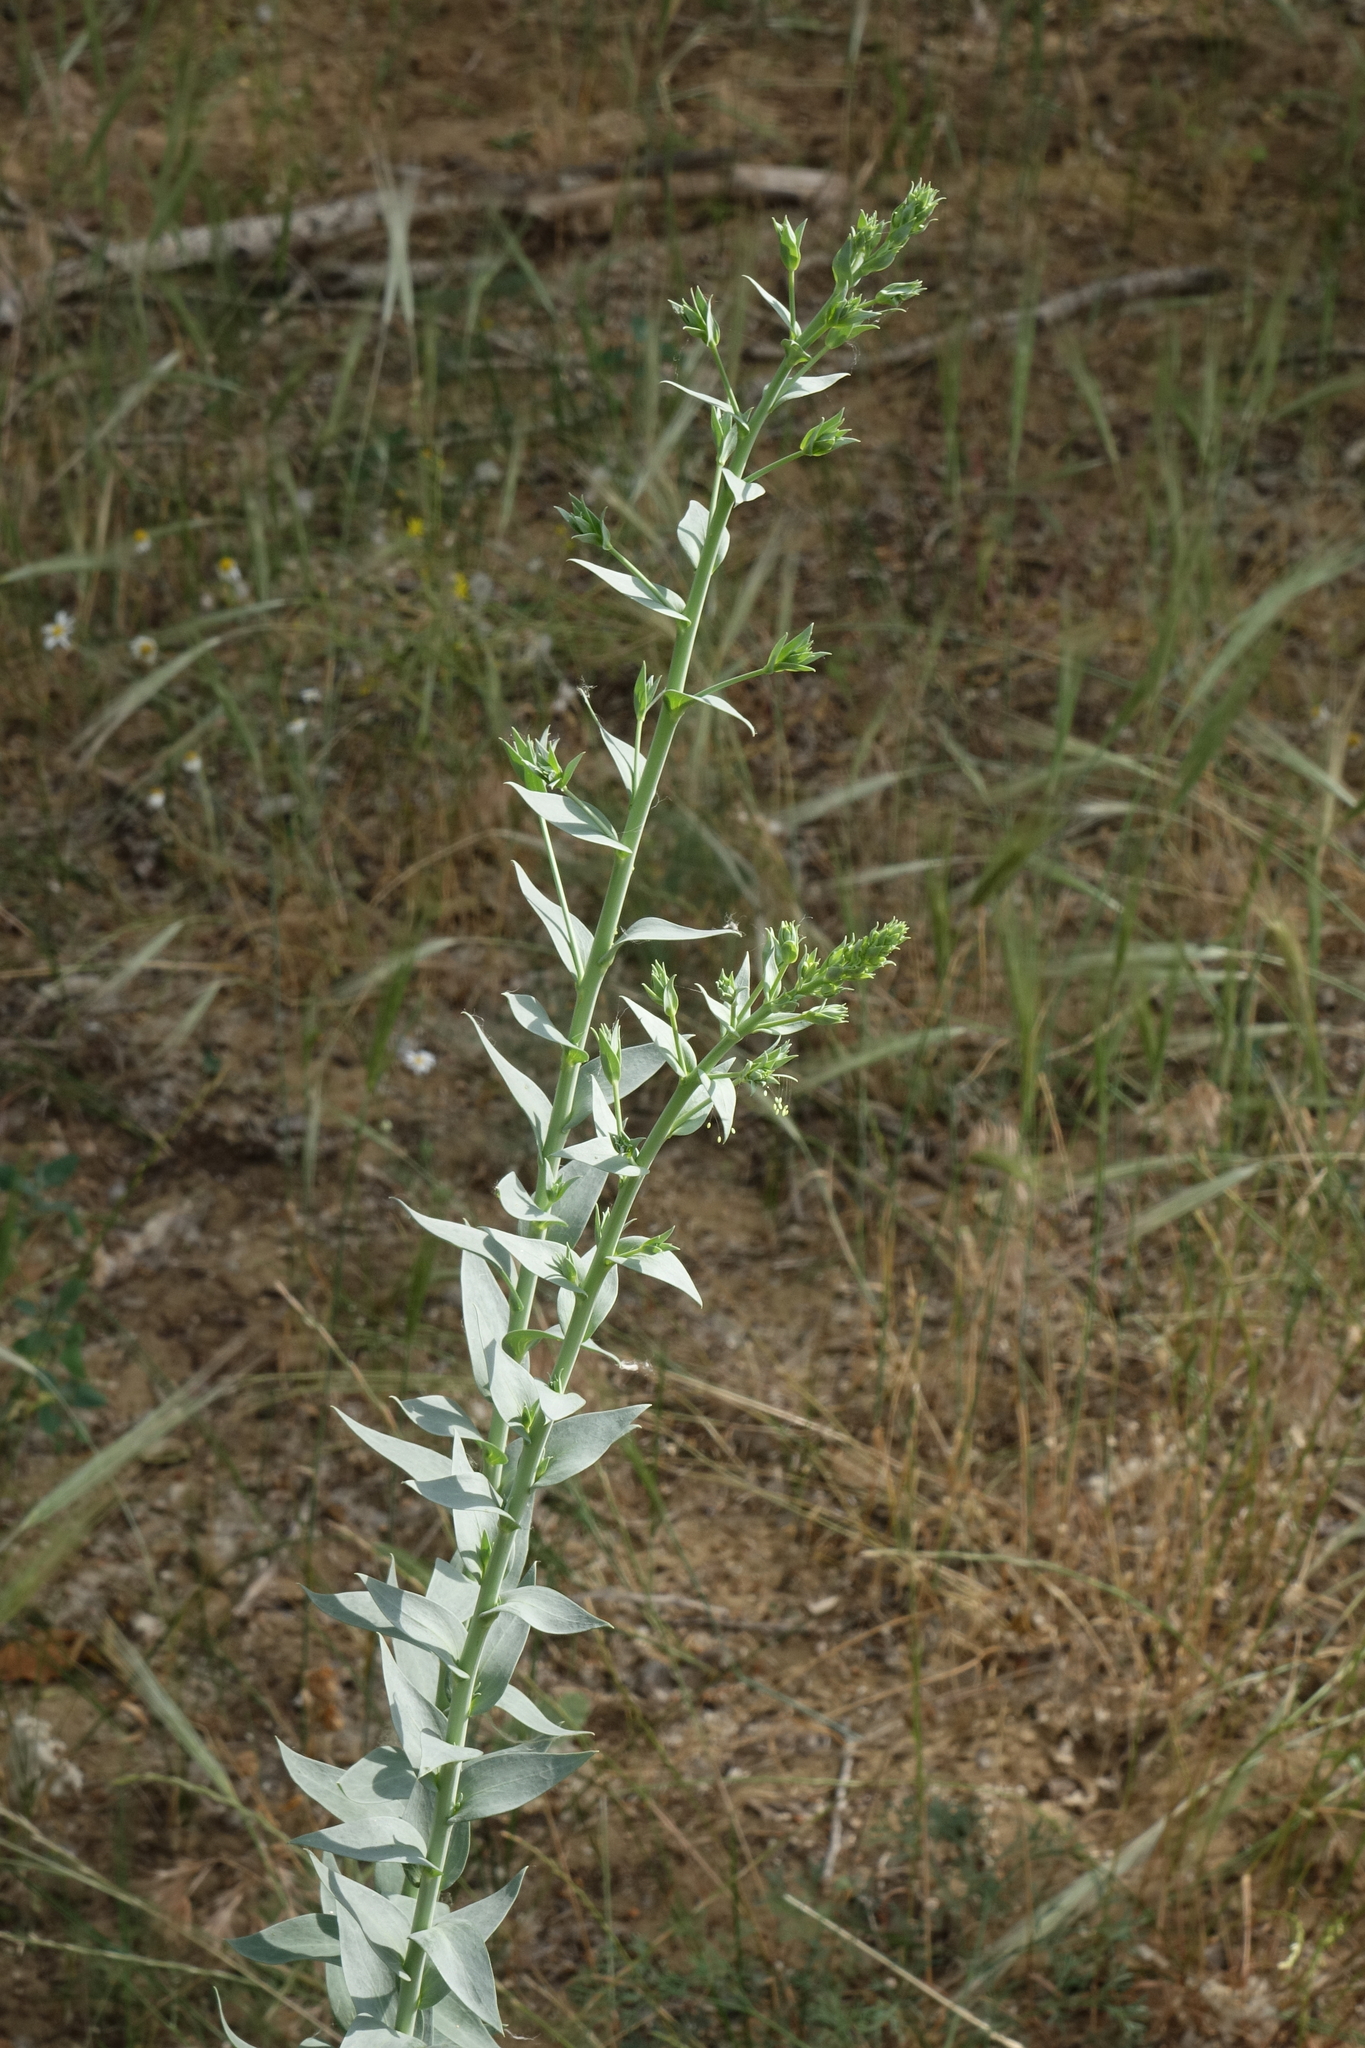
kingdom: Plantae
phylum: Tracheophyta
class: Magnoliopsida
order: Lamiales
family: Plantaginaceae
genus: Linaria
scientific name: Linaria genistifolia
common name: Broomleaf toadflax
